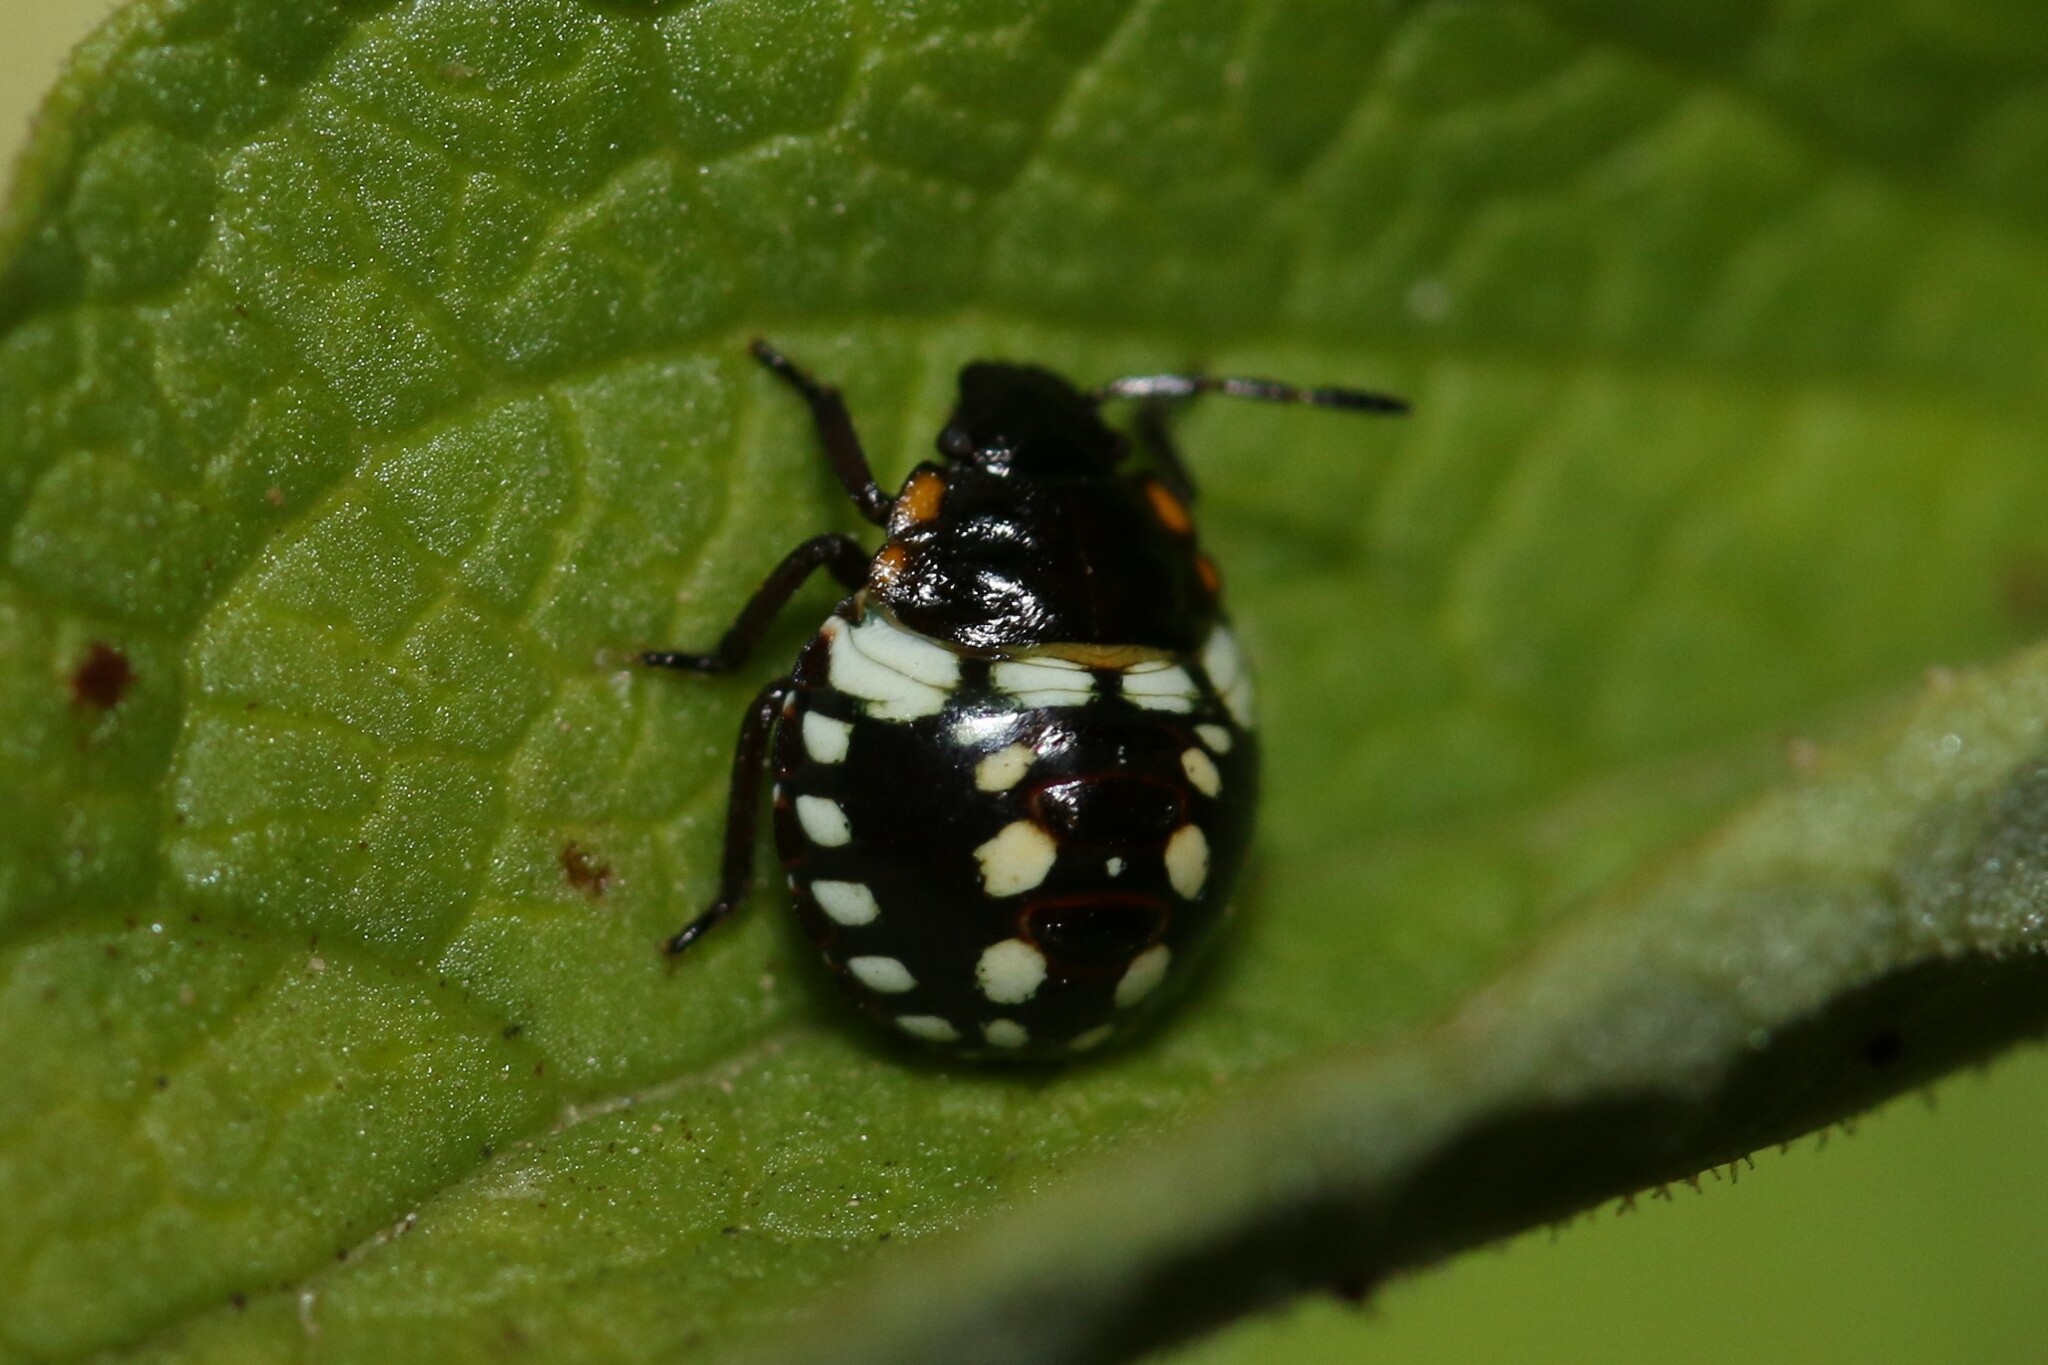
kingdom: Animalia
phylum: Arthropoda
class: Insecta
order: Hemiptera
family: Pentatomidae
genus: Nezara
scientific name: Nezara viridula
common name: Southern green stink bug
